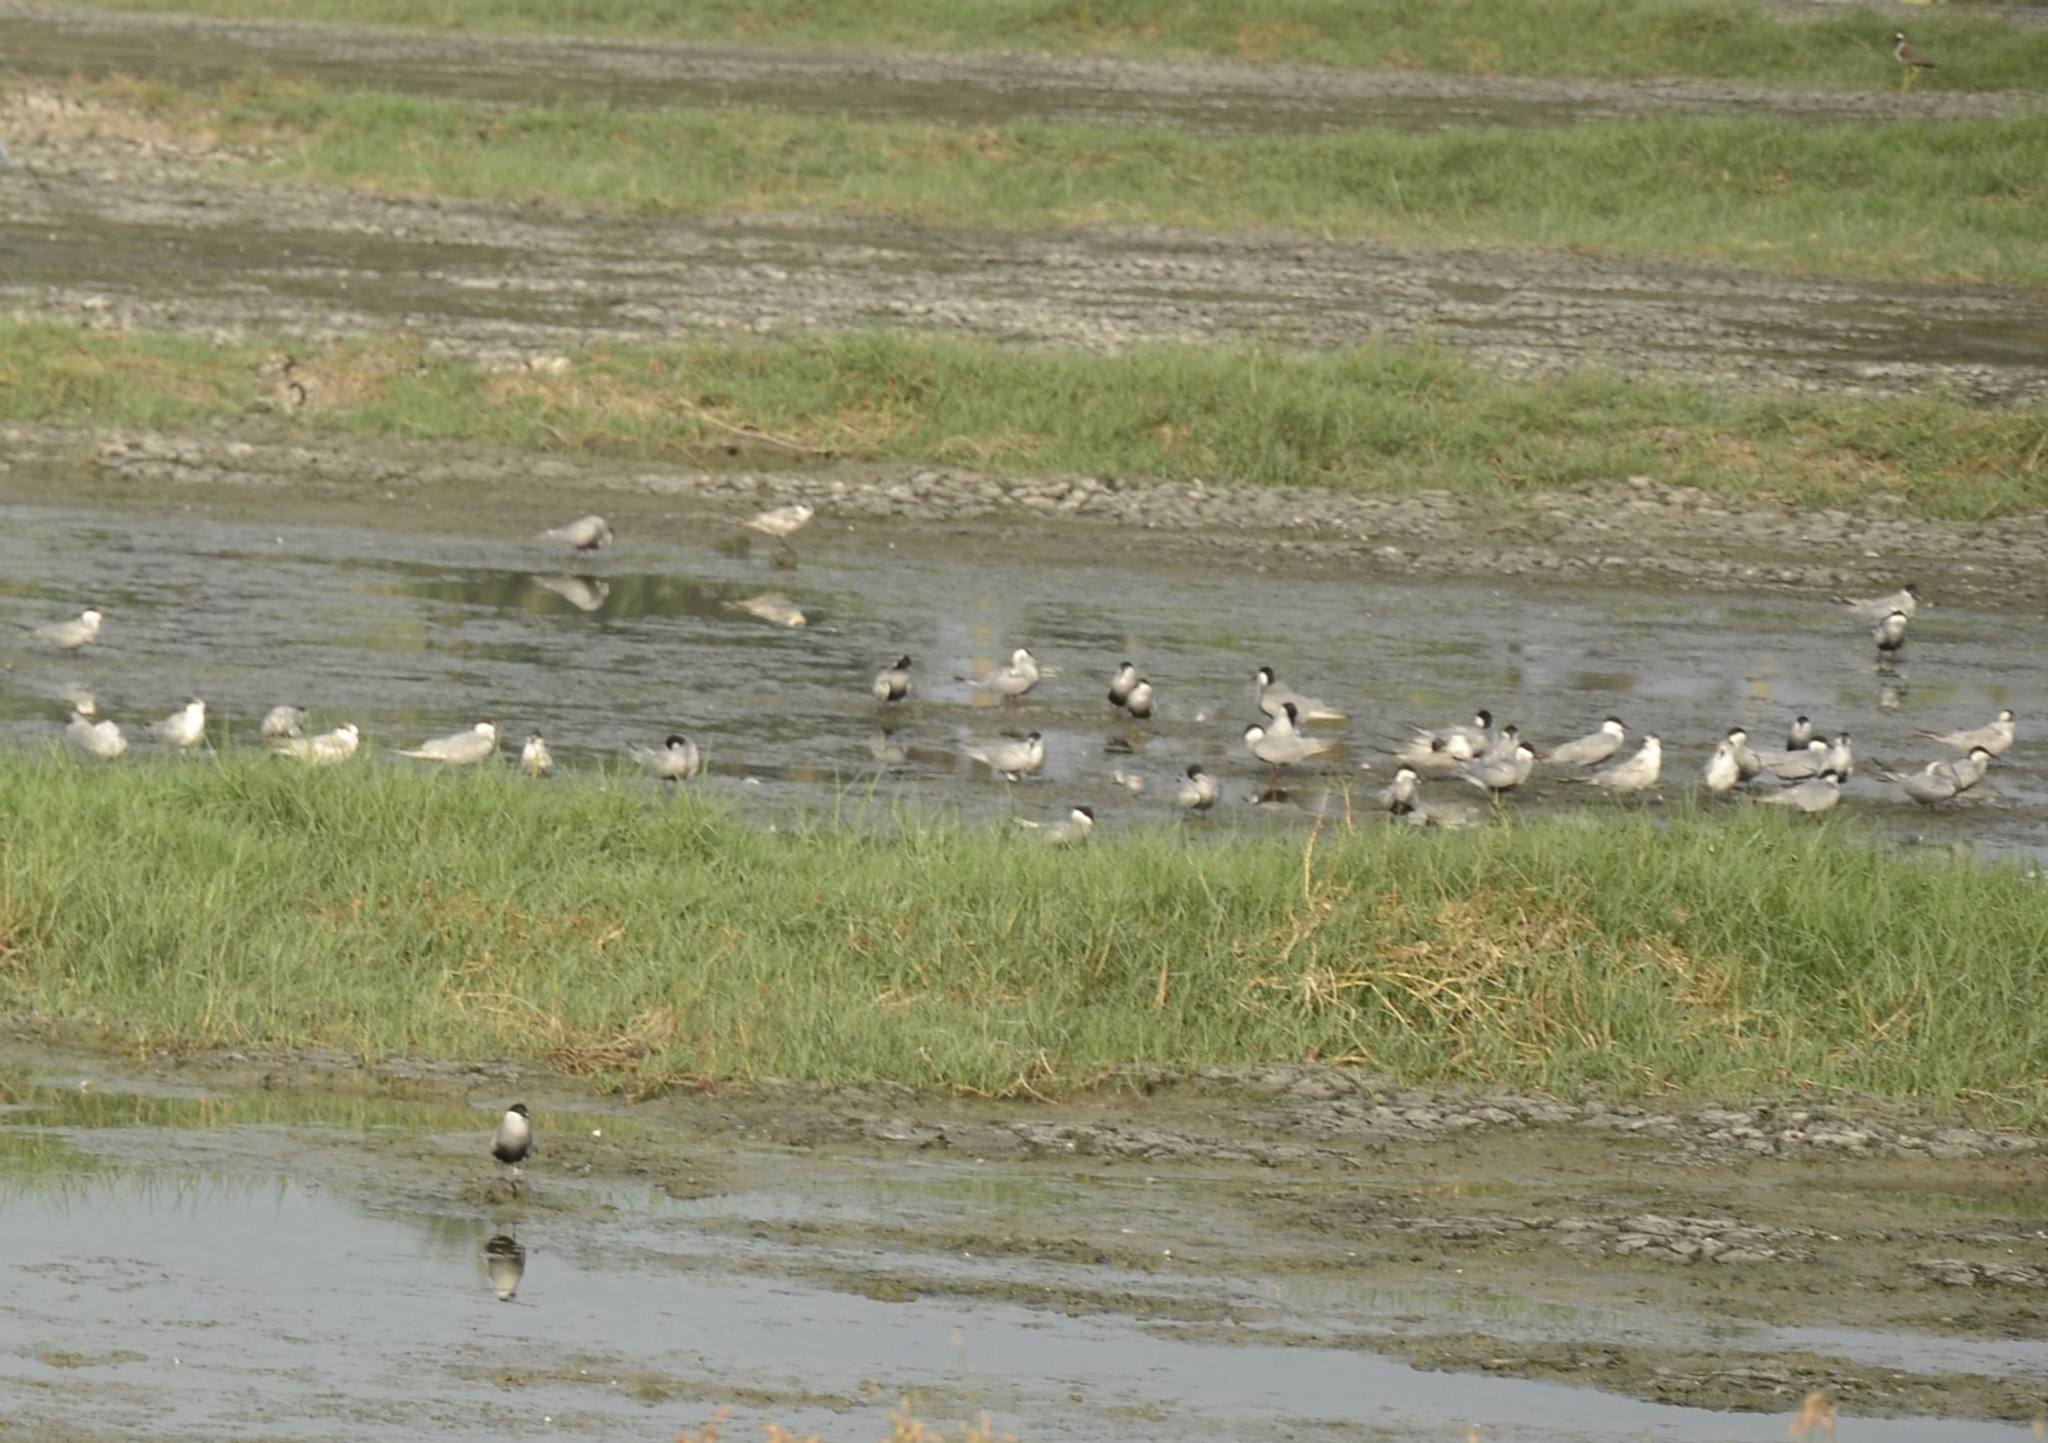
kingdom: Animalia
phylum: Chordata
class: Aves
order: Charadriiformes
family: Laridae
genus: Chlidonias
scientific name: Chlidonias hybrida
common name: Whiskered tern
